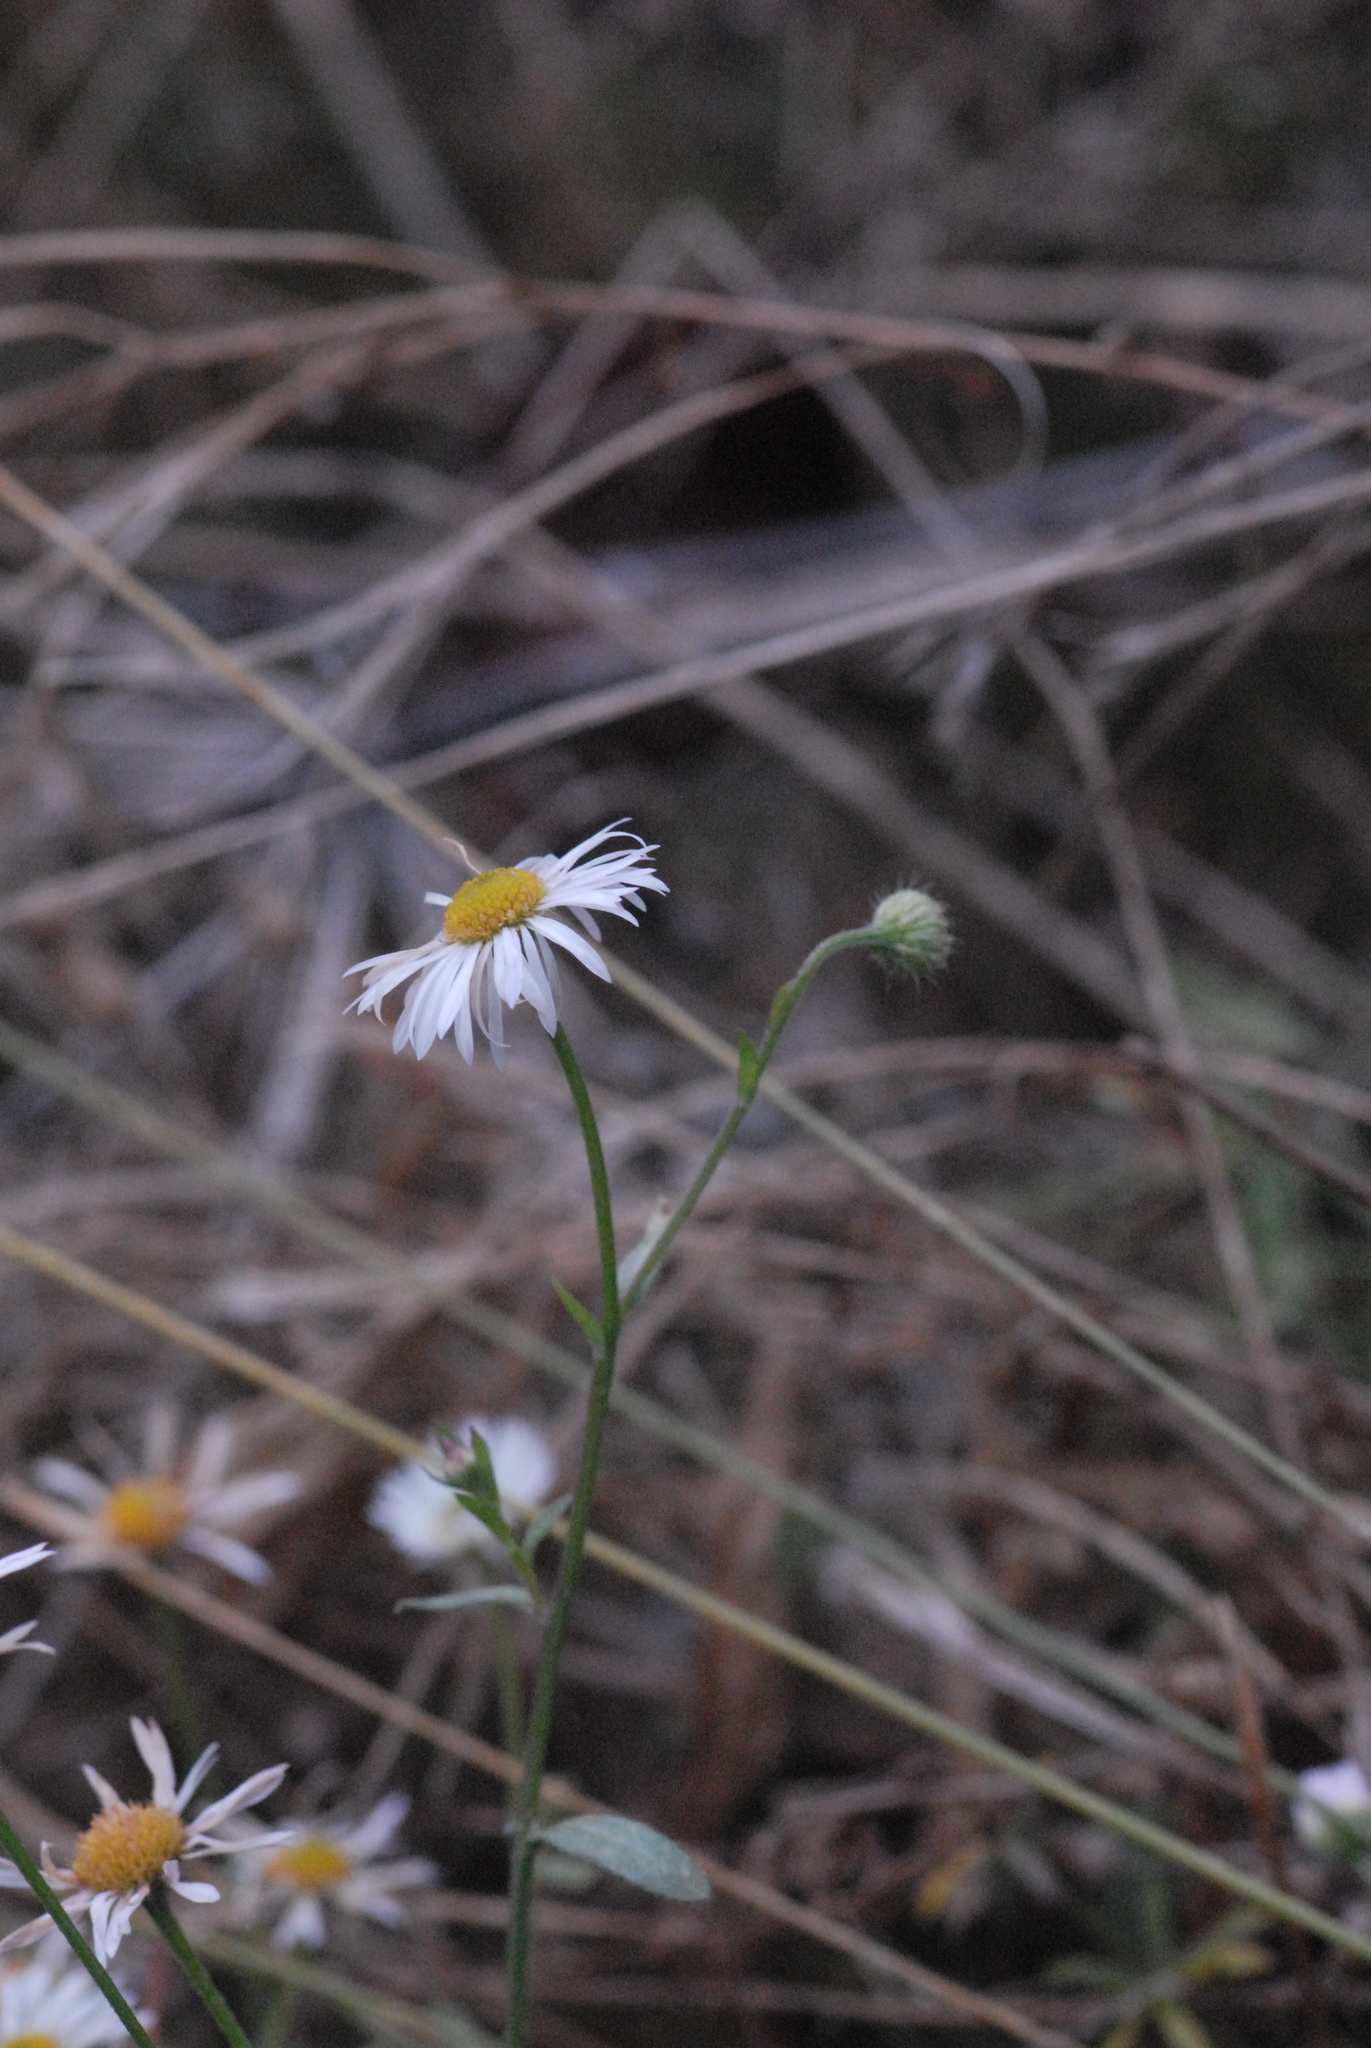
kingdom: Plantae
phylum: Tracheophyta
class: Magnoliopsida
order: Asterales
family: Asteraceae
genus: Erigeron
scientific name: Erigeron annuus
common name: Tall fleabane
